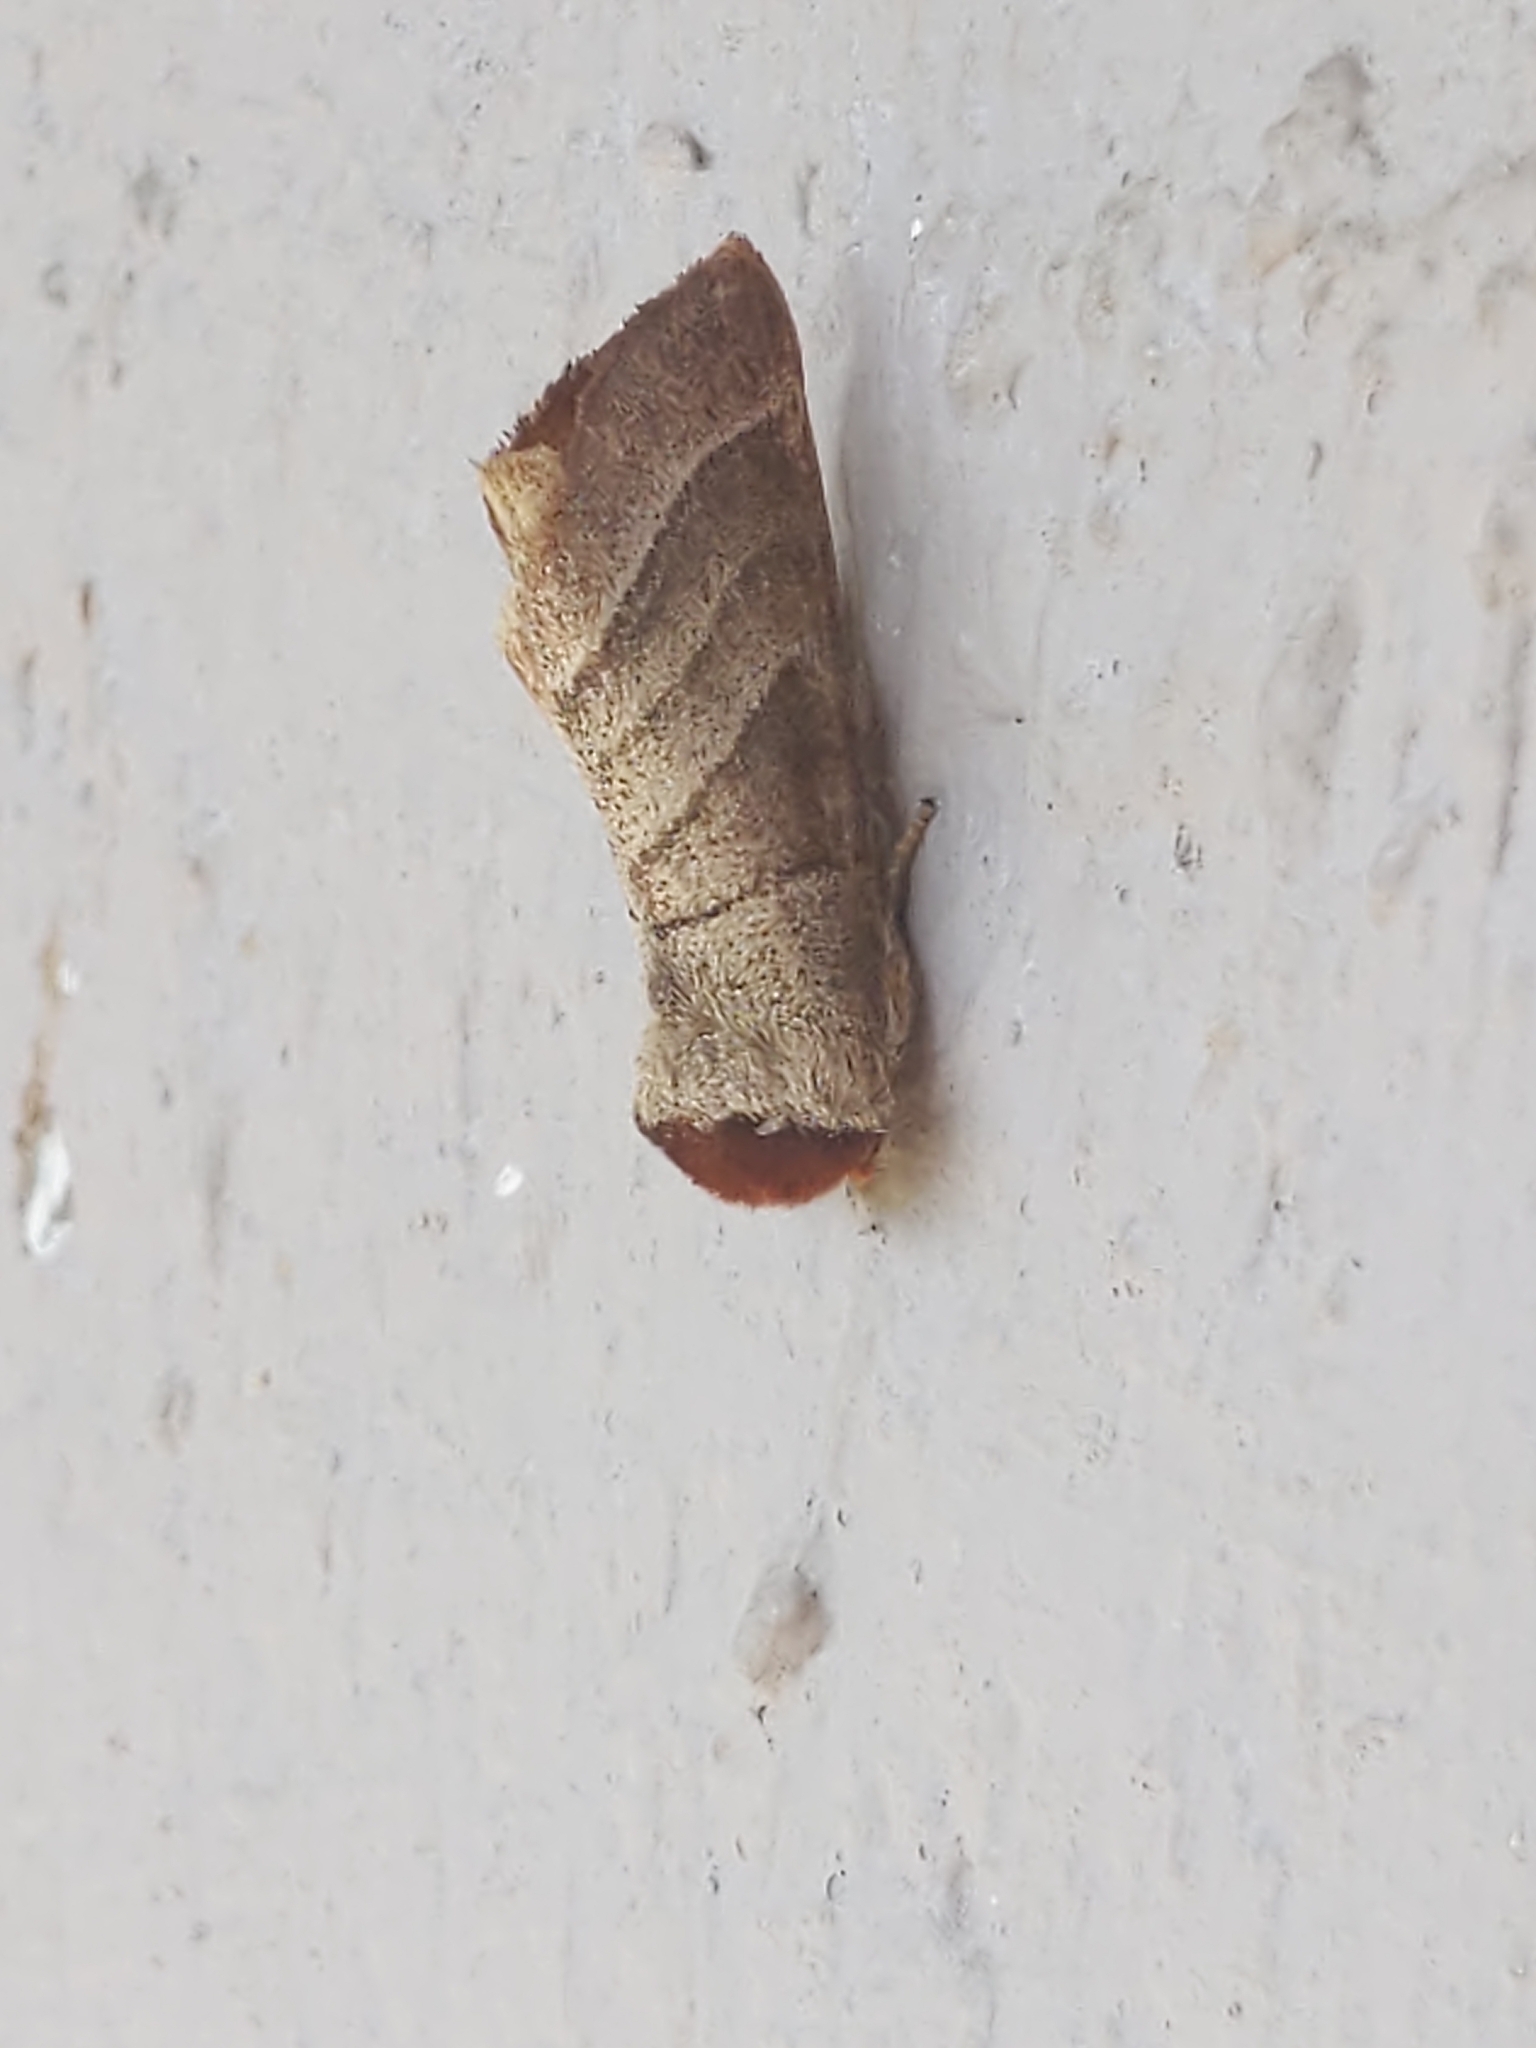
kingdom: Animalia
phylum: Arthropoda
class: Insecta
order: Lepidoptera
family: Notodontidae
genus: Datana
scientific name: Datana integerrima
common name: Walnut caterpillar
